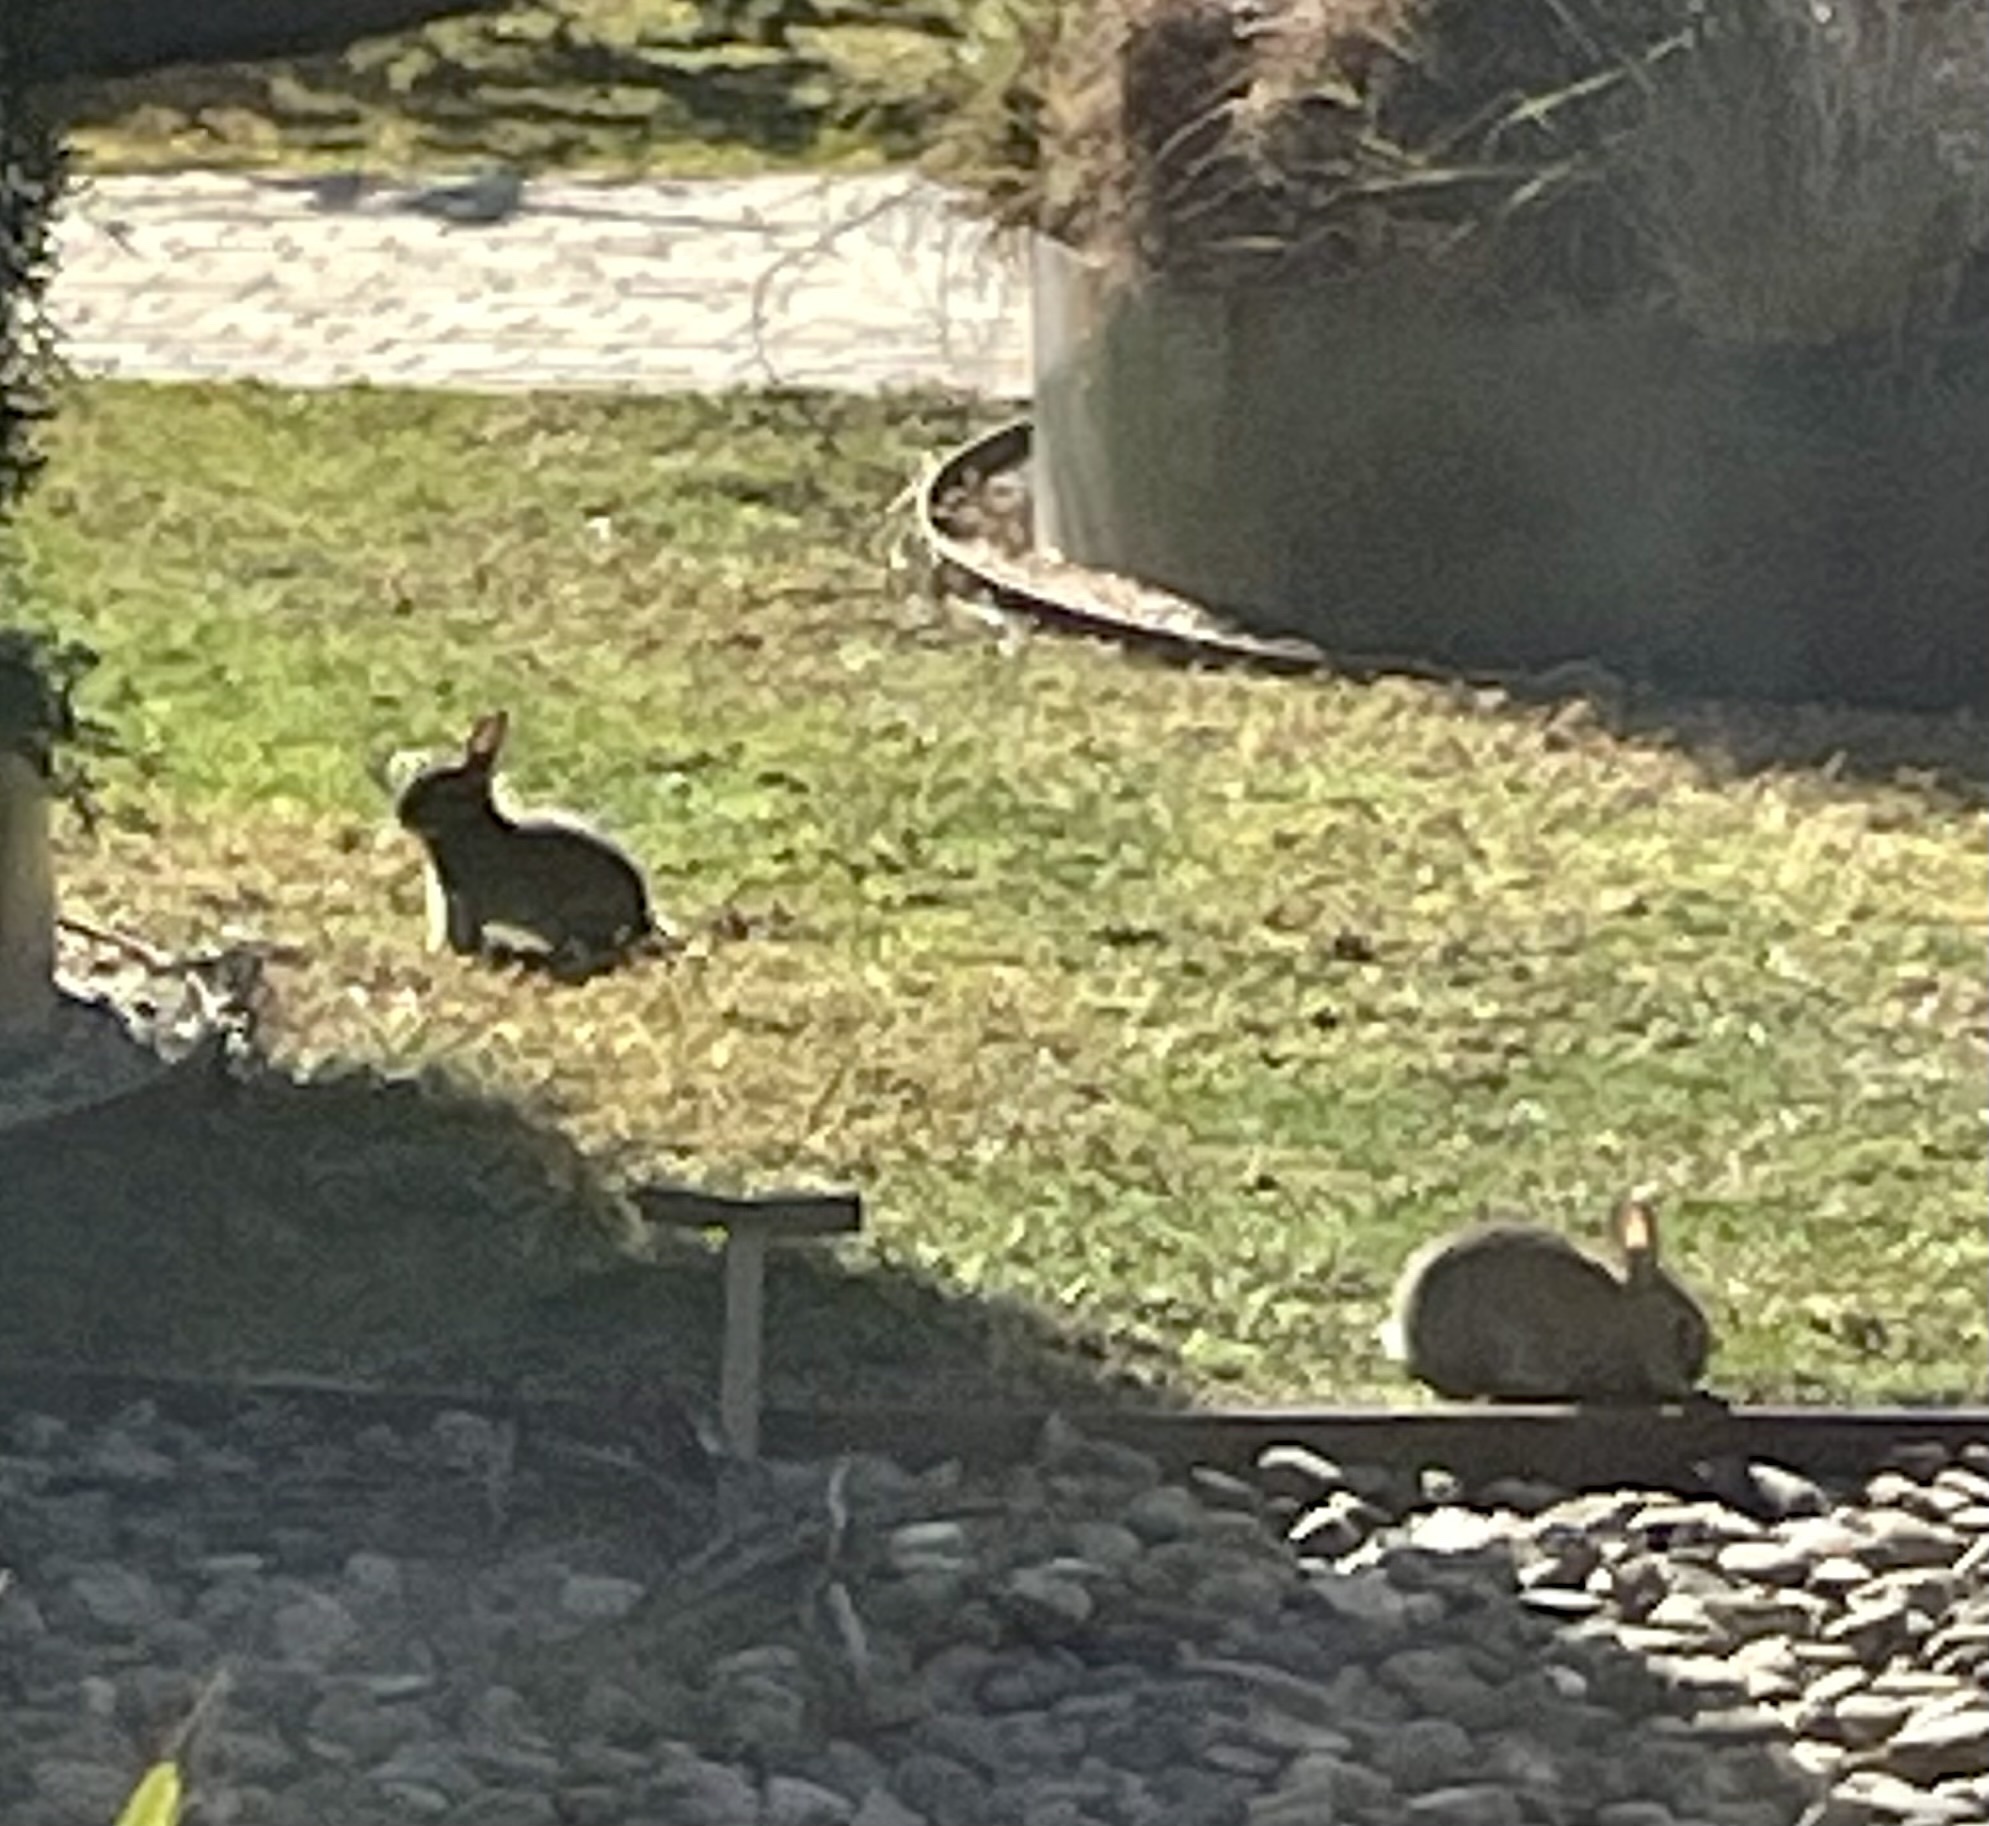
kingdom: Animalia
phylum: Chordata
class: Mammalia
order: Lagomorpha
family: Leporidae
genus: Oryctolagus
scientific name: Oryctolagus cuniculus
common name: European rabbit
